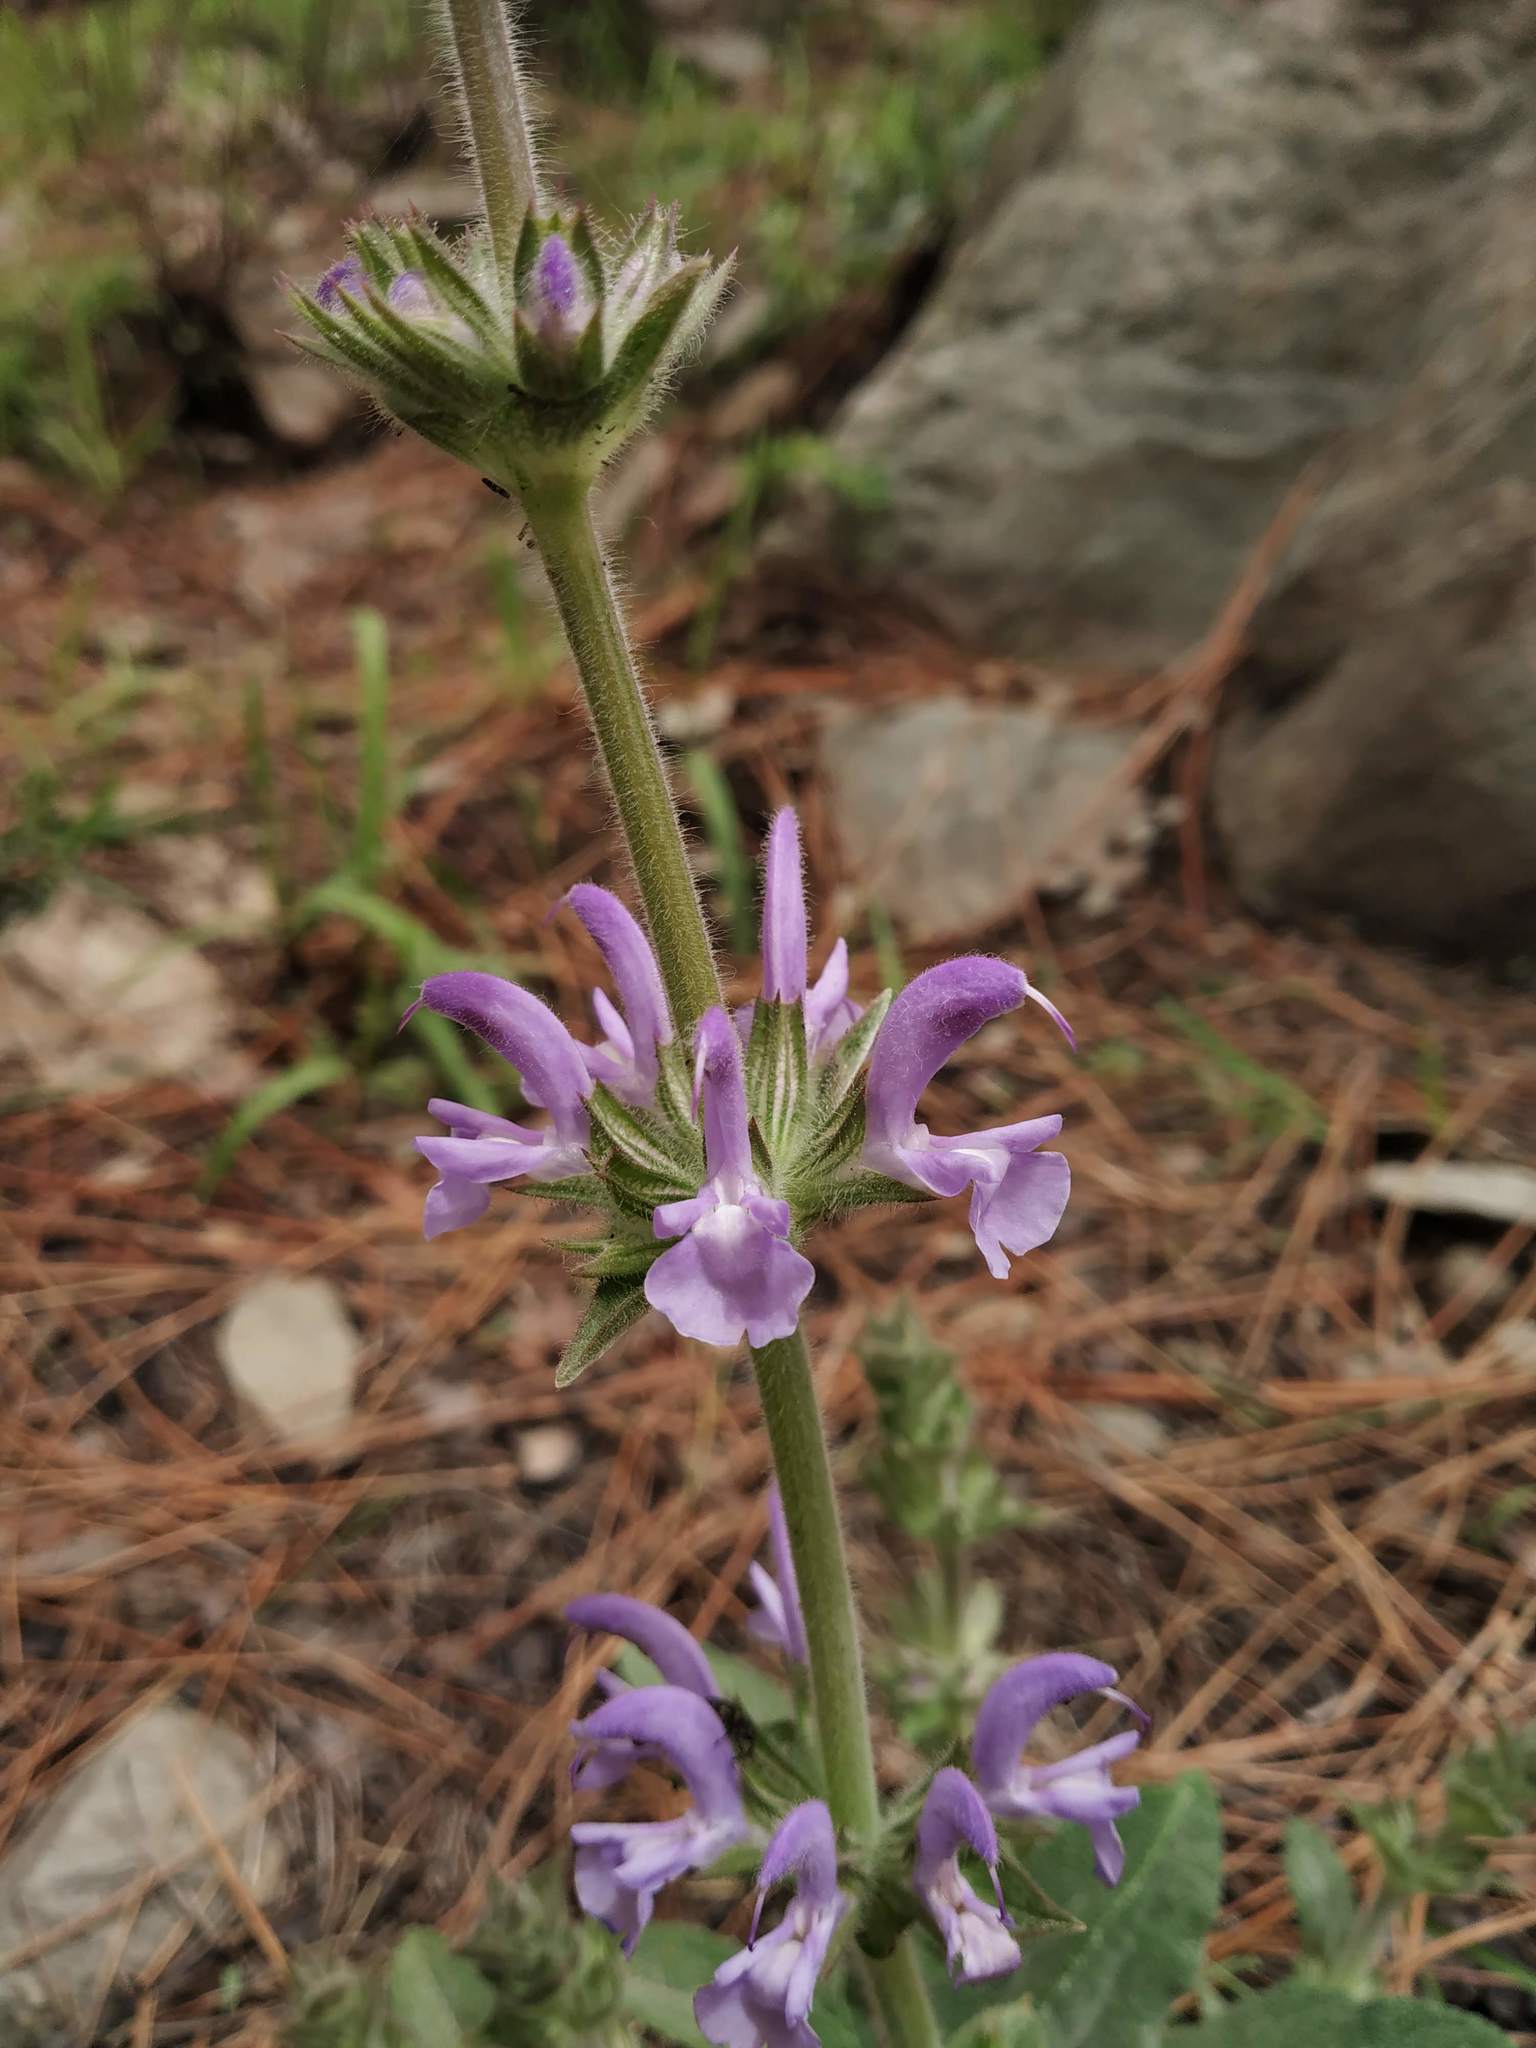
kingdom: Plantae
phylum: Tracheophyta
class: Magnoliopsida
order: Lamiales
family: Lamiaceae
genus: Salvia
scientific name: Salvia cana
